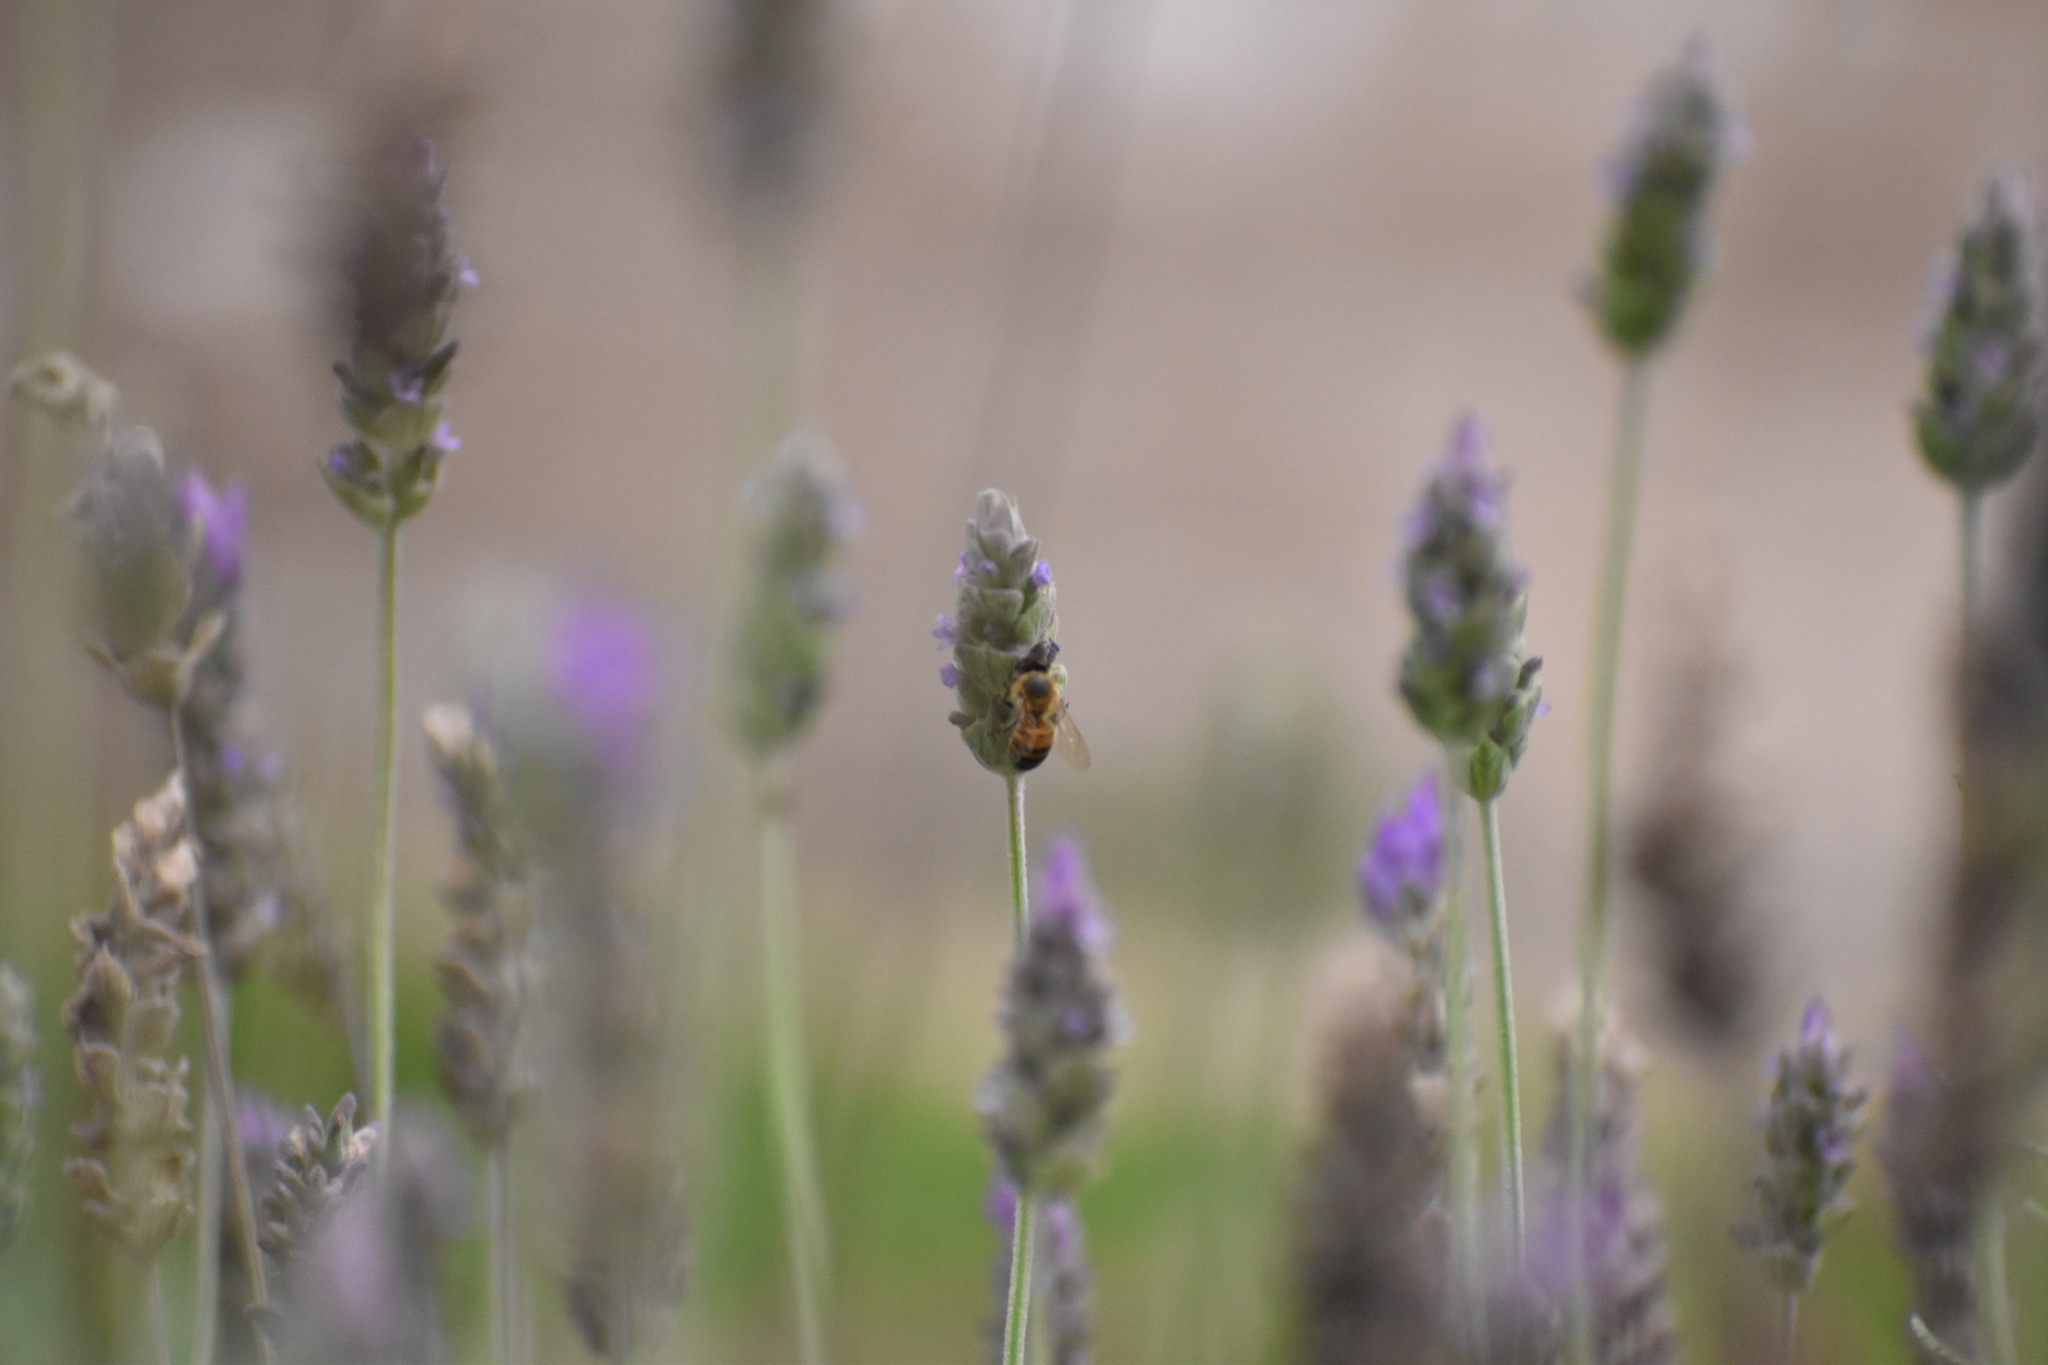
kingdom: Animalia
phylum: Arthropoda
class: Insecta
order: Hymenoptera
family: Apidae
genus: Apis
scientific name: Apis mellifera
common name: Honey bee
